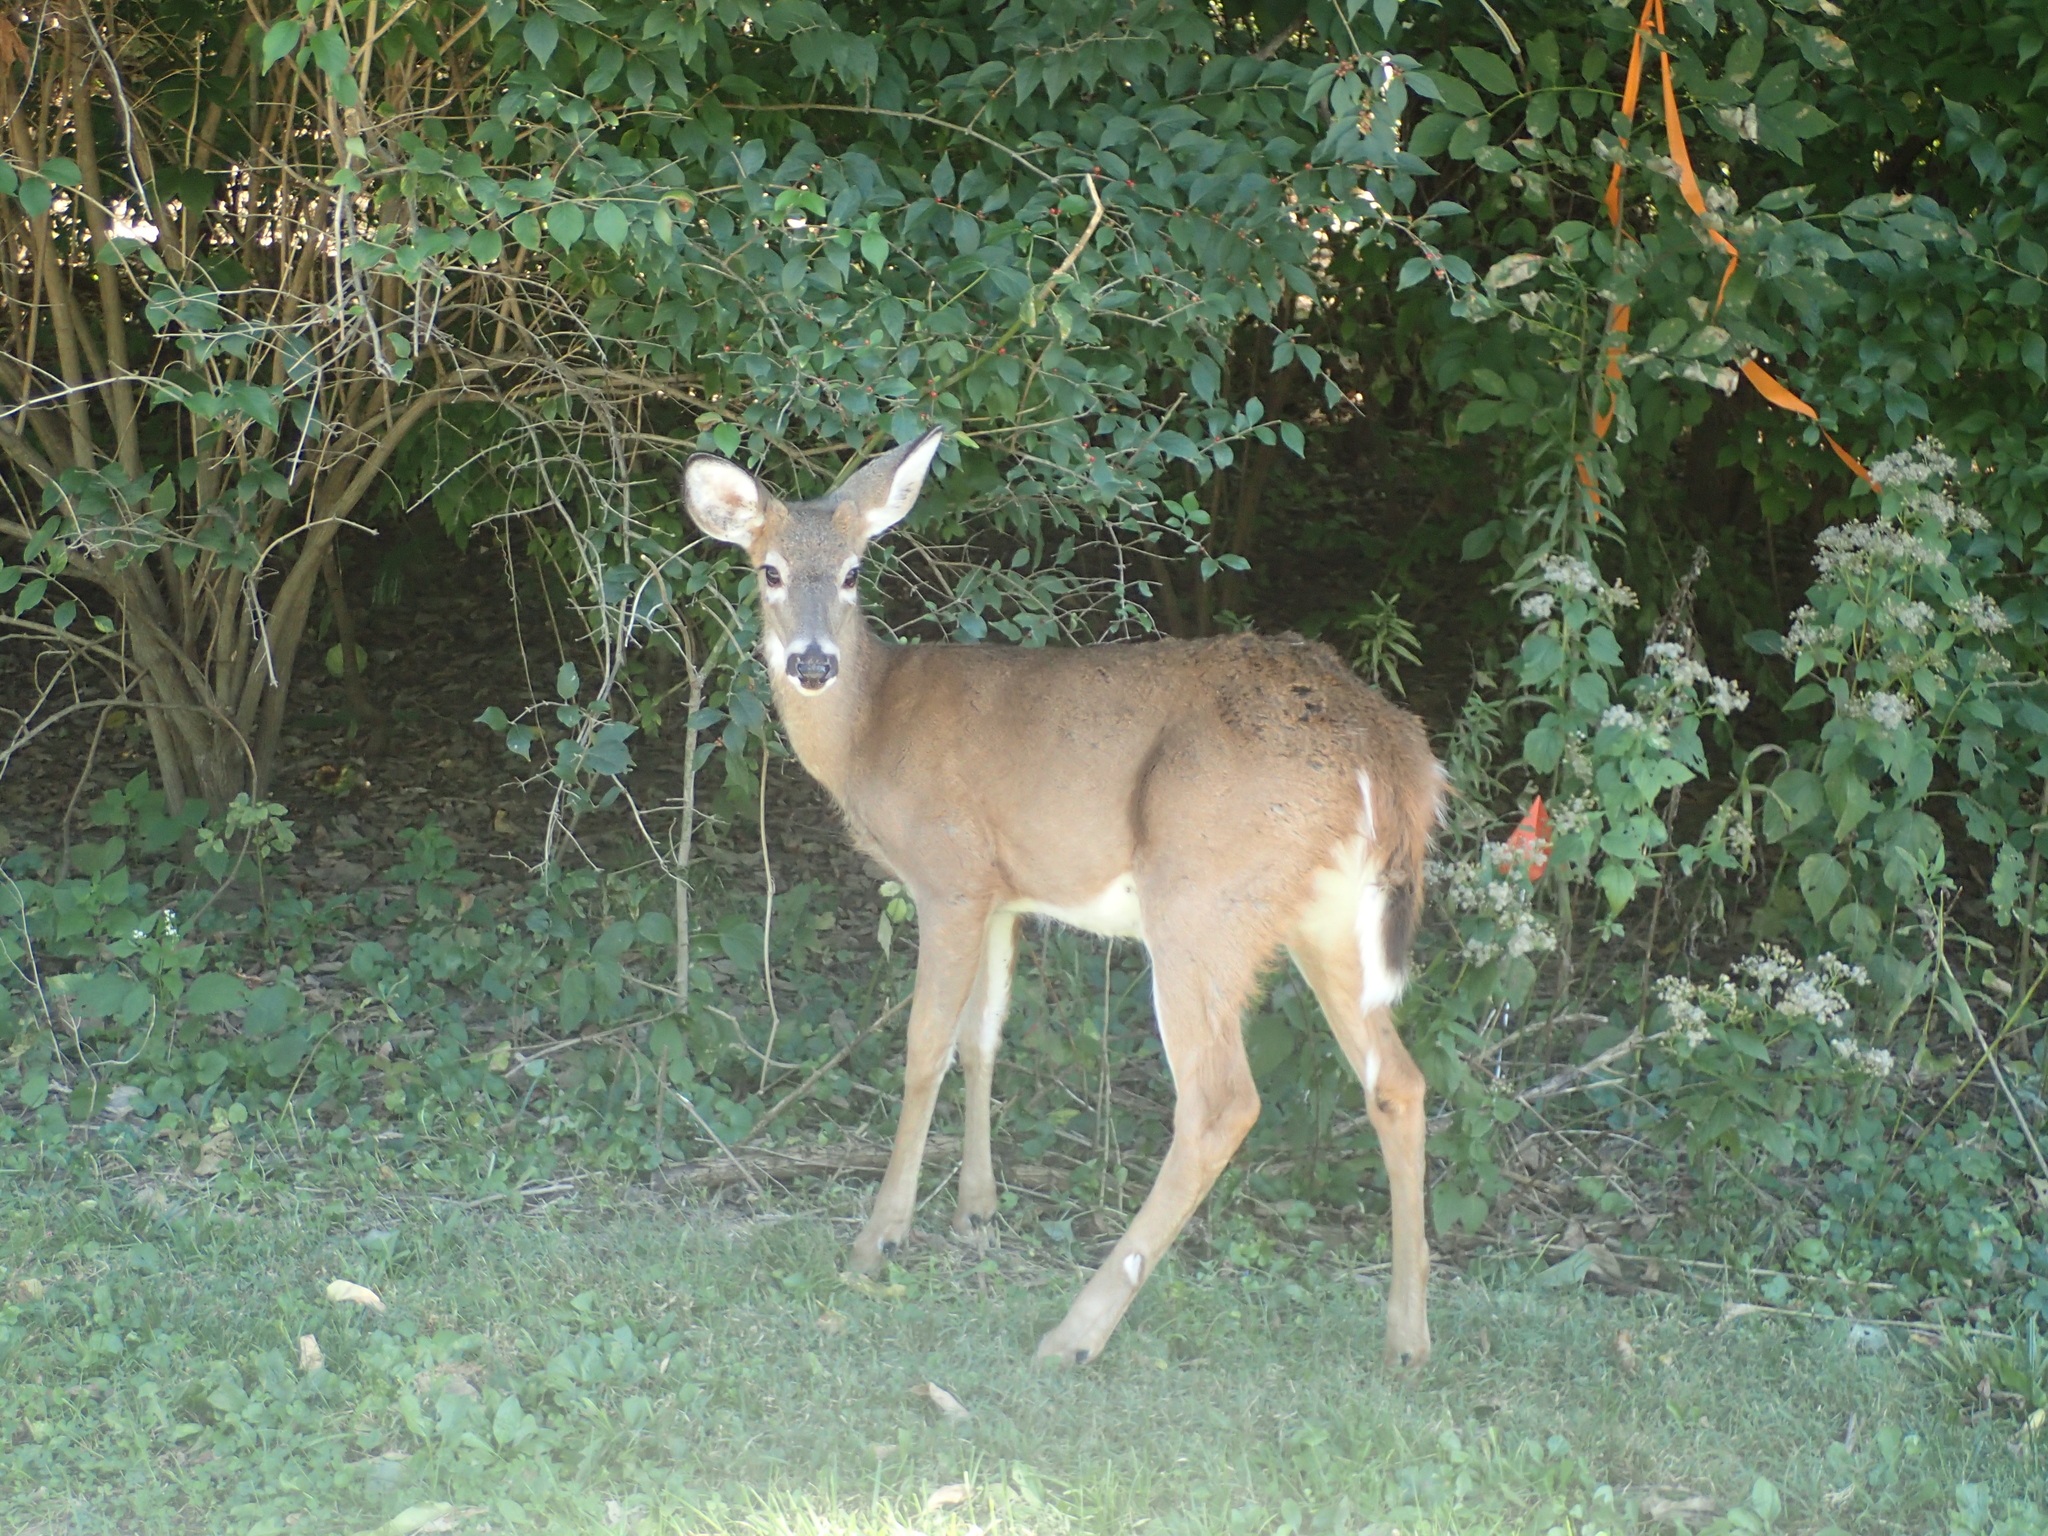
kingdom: Animalia
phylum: Chordata
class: Mammalia
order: Artiodactyla
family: Cervidae
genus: Odocoileus
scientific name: Odocoileus virginianus
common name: White-tailed deer
